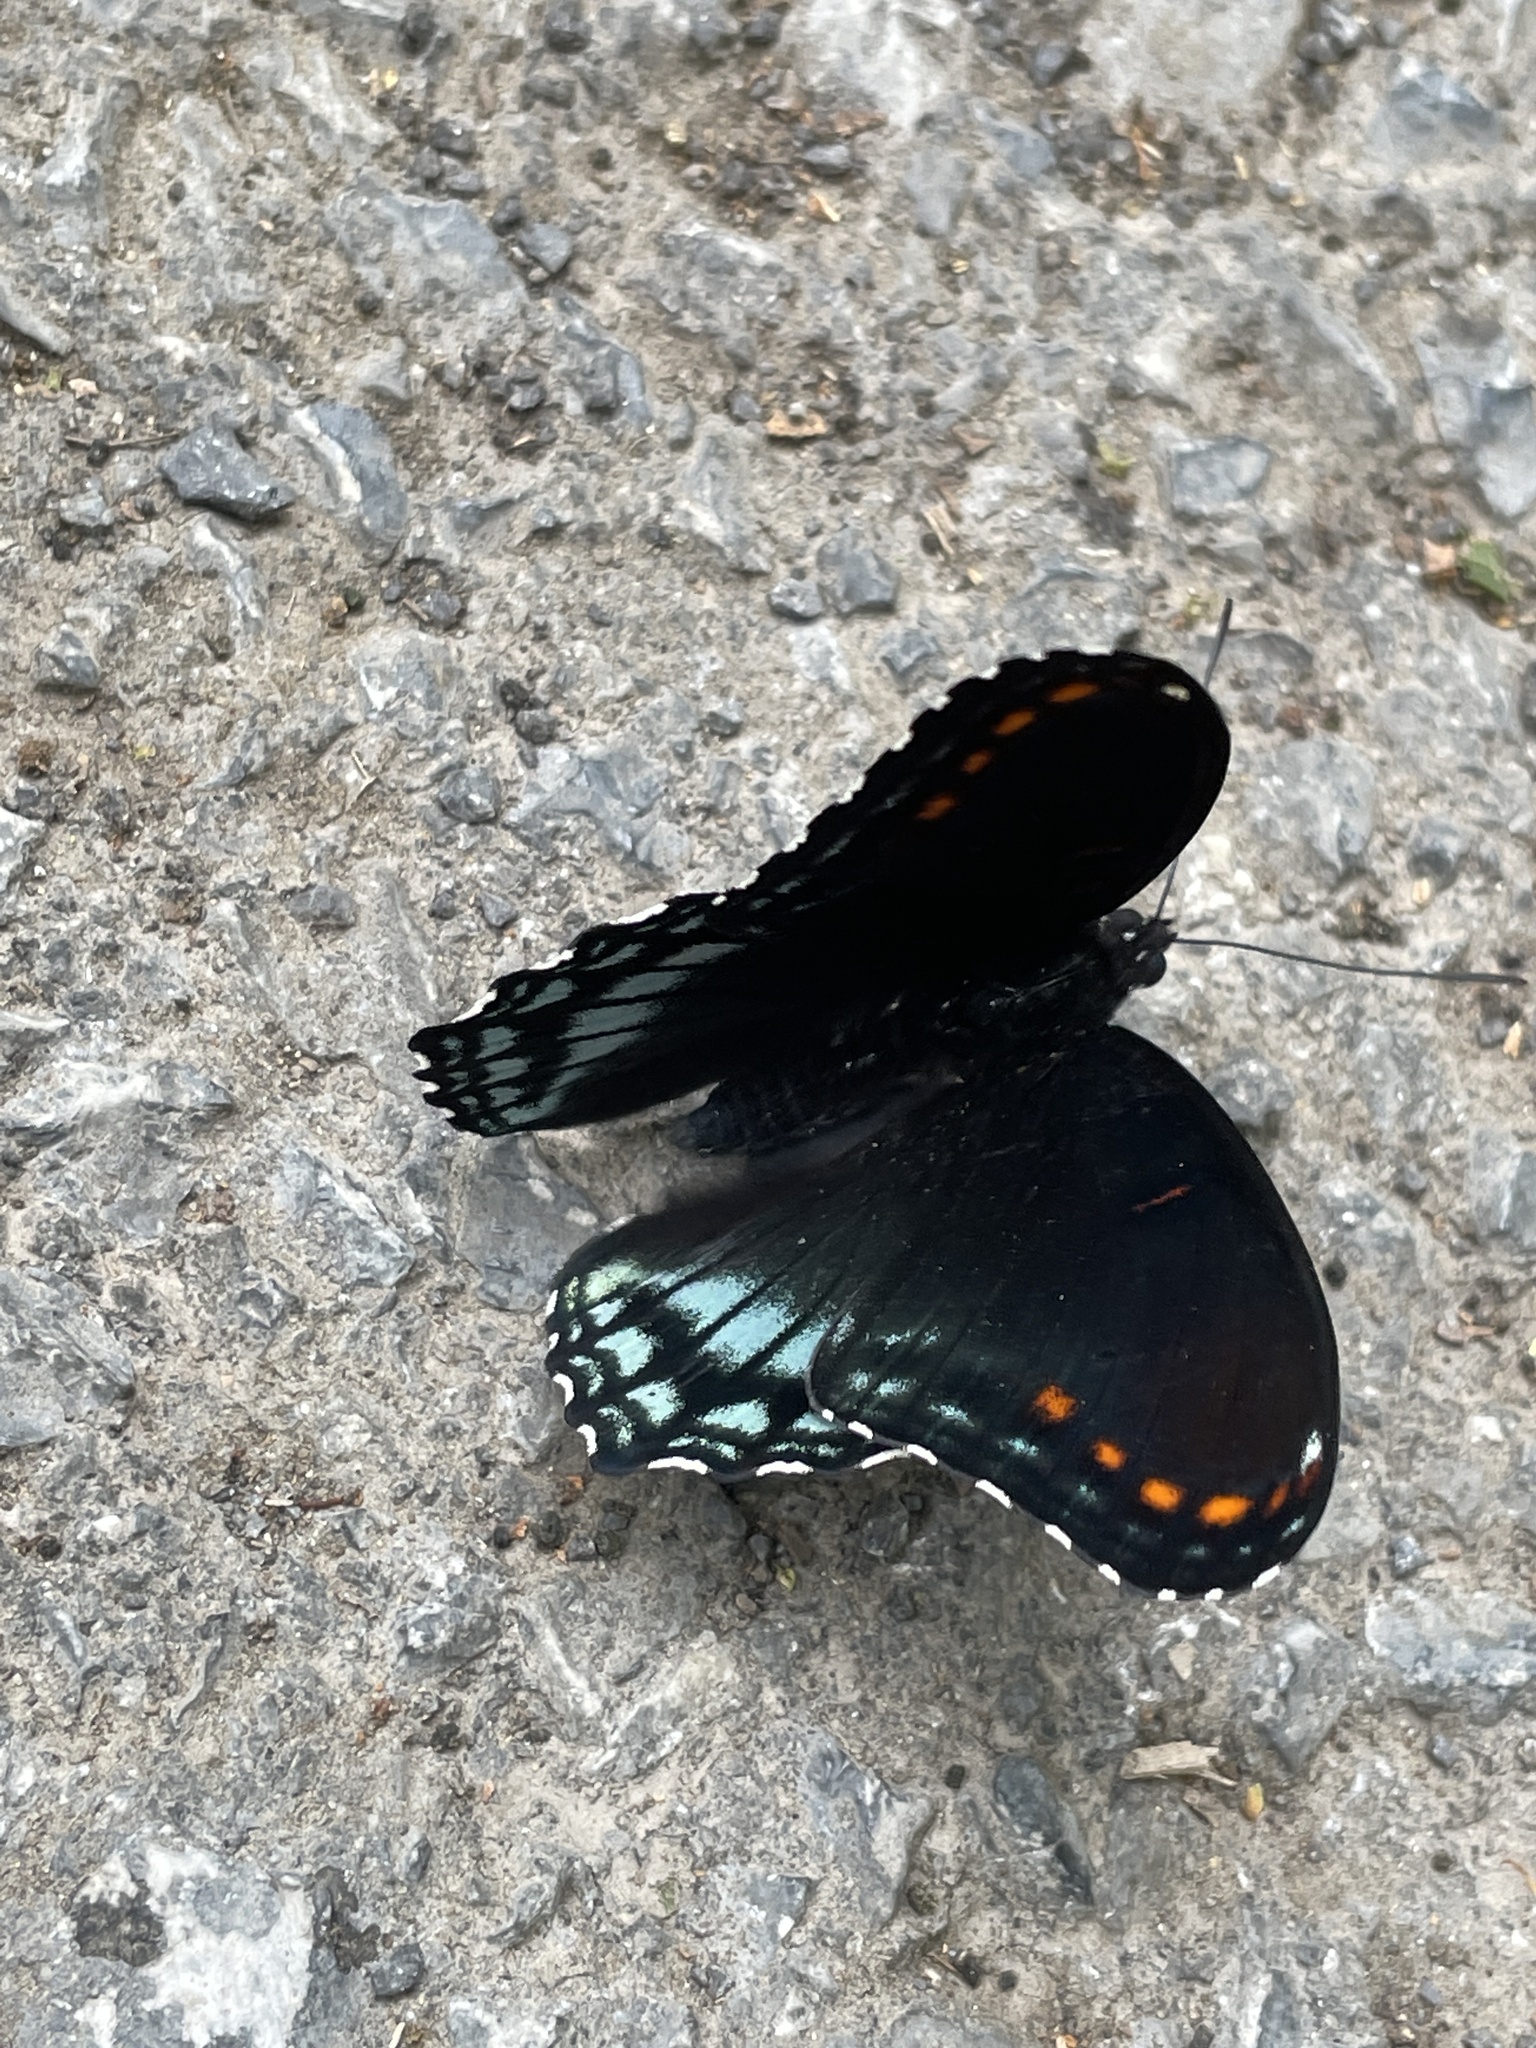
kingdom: Animalia
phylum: Arthropoda
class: Insecta
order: Lepidoptera
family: Nymphalidae
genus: Limenitis
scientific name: Limenitis astyanax
